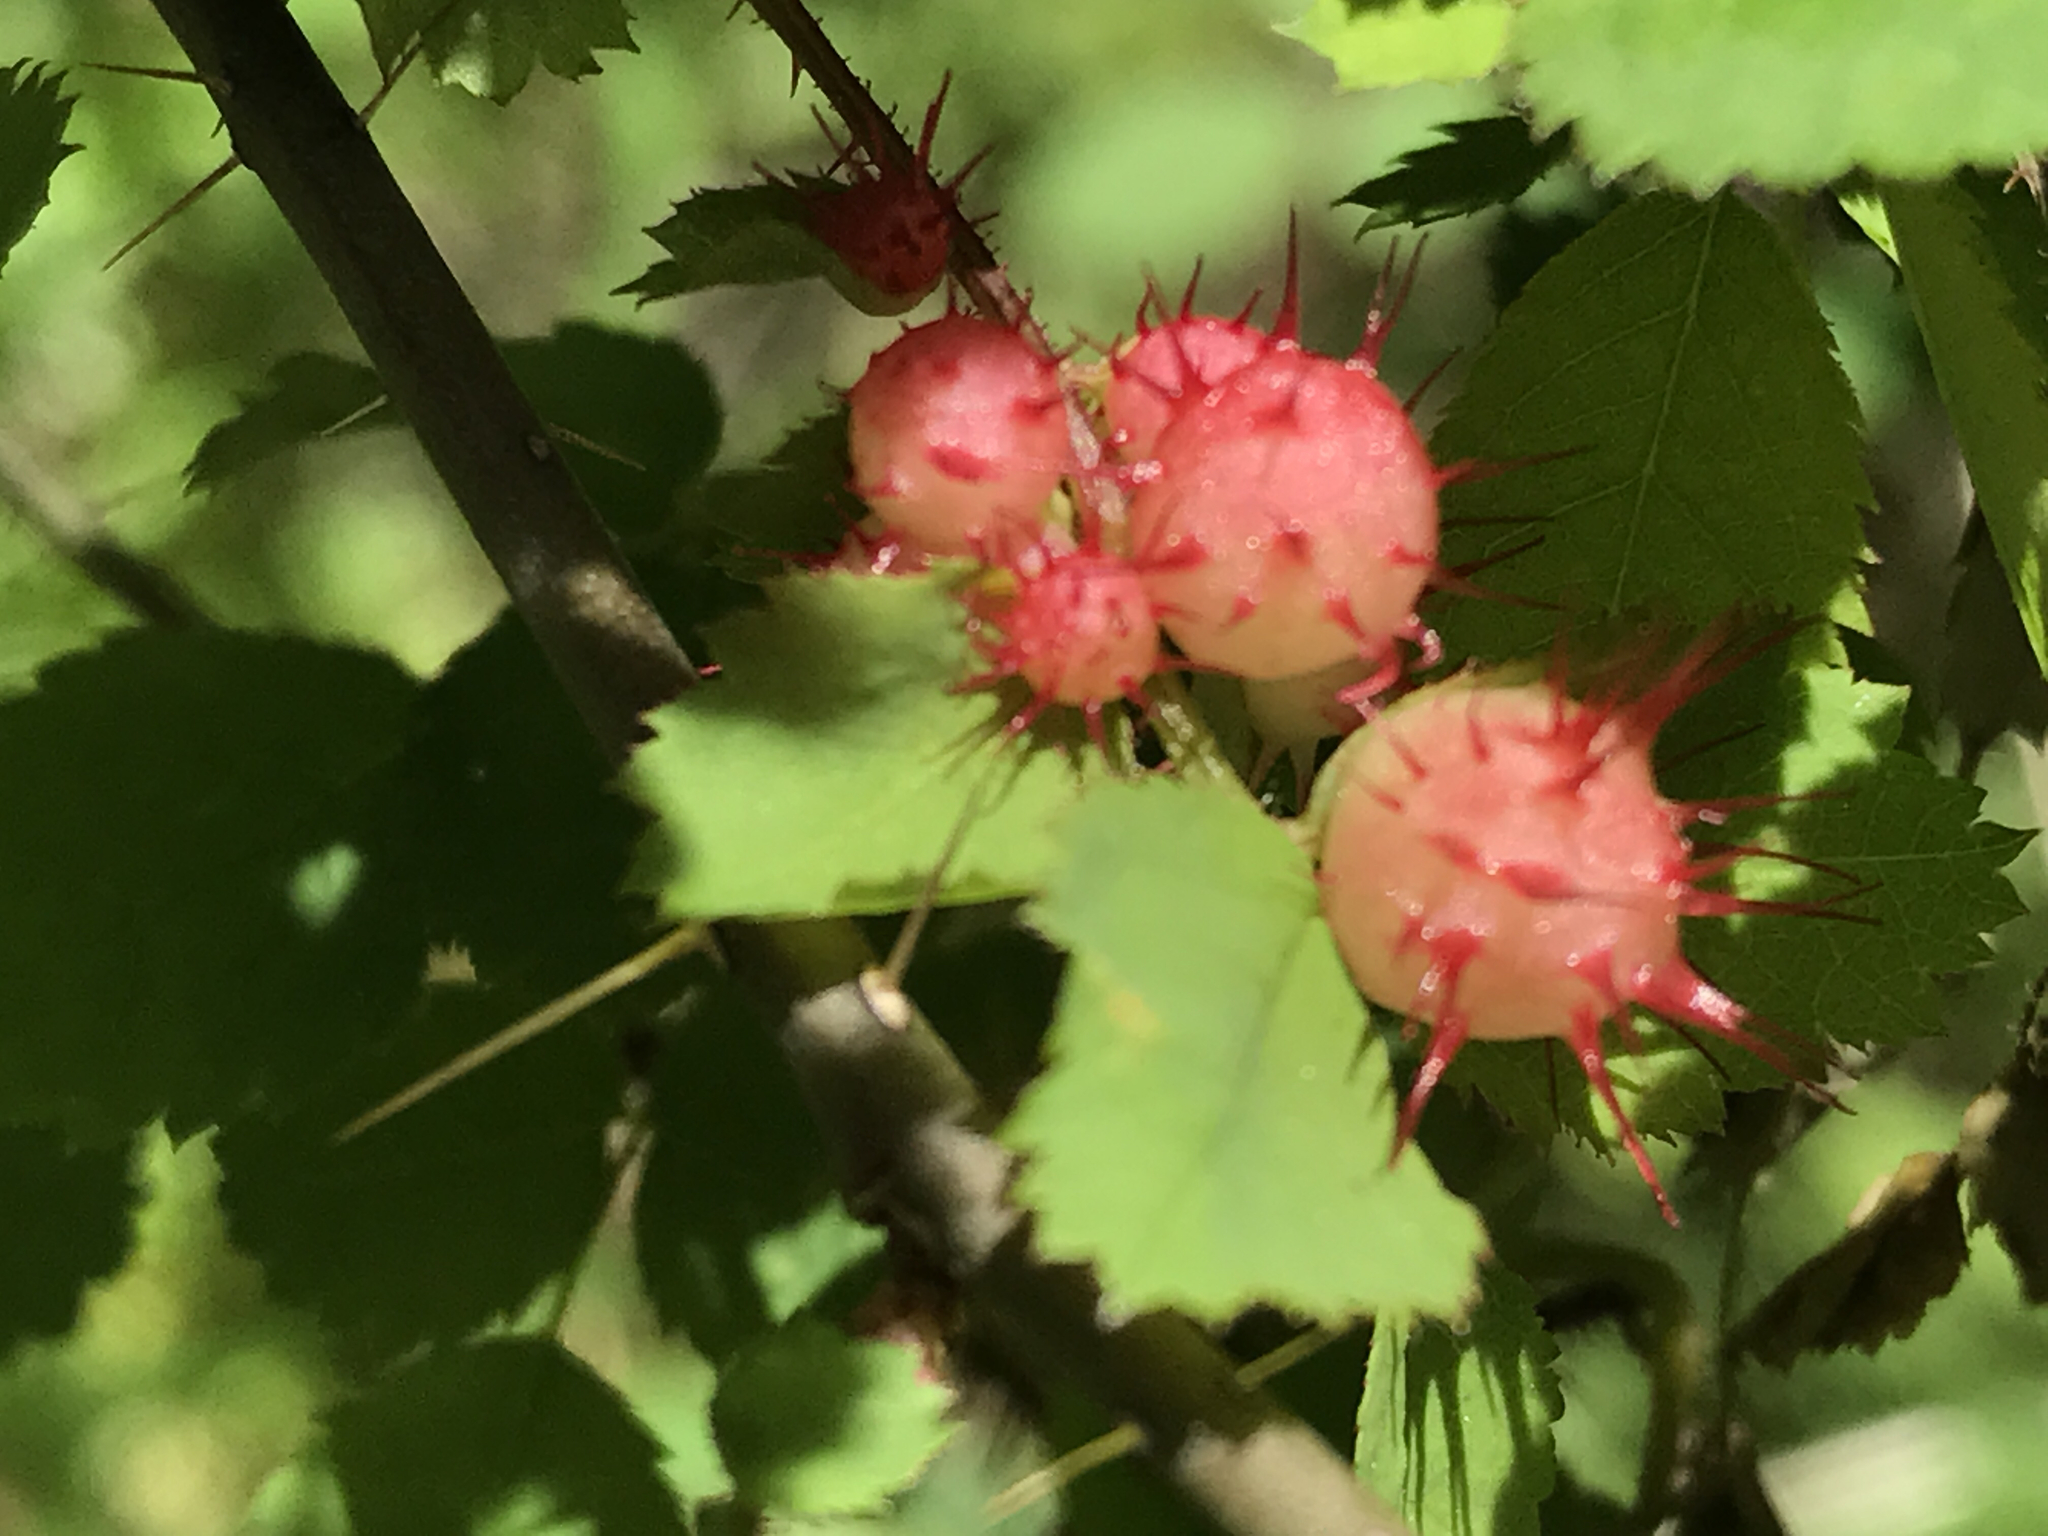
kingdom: Animalia
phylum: Arthropoda
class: Insecta
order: Hymenoptera
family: Cynipidae
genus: Diplolepis
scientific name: Diplolepis polita
